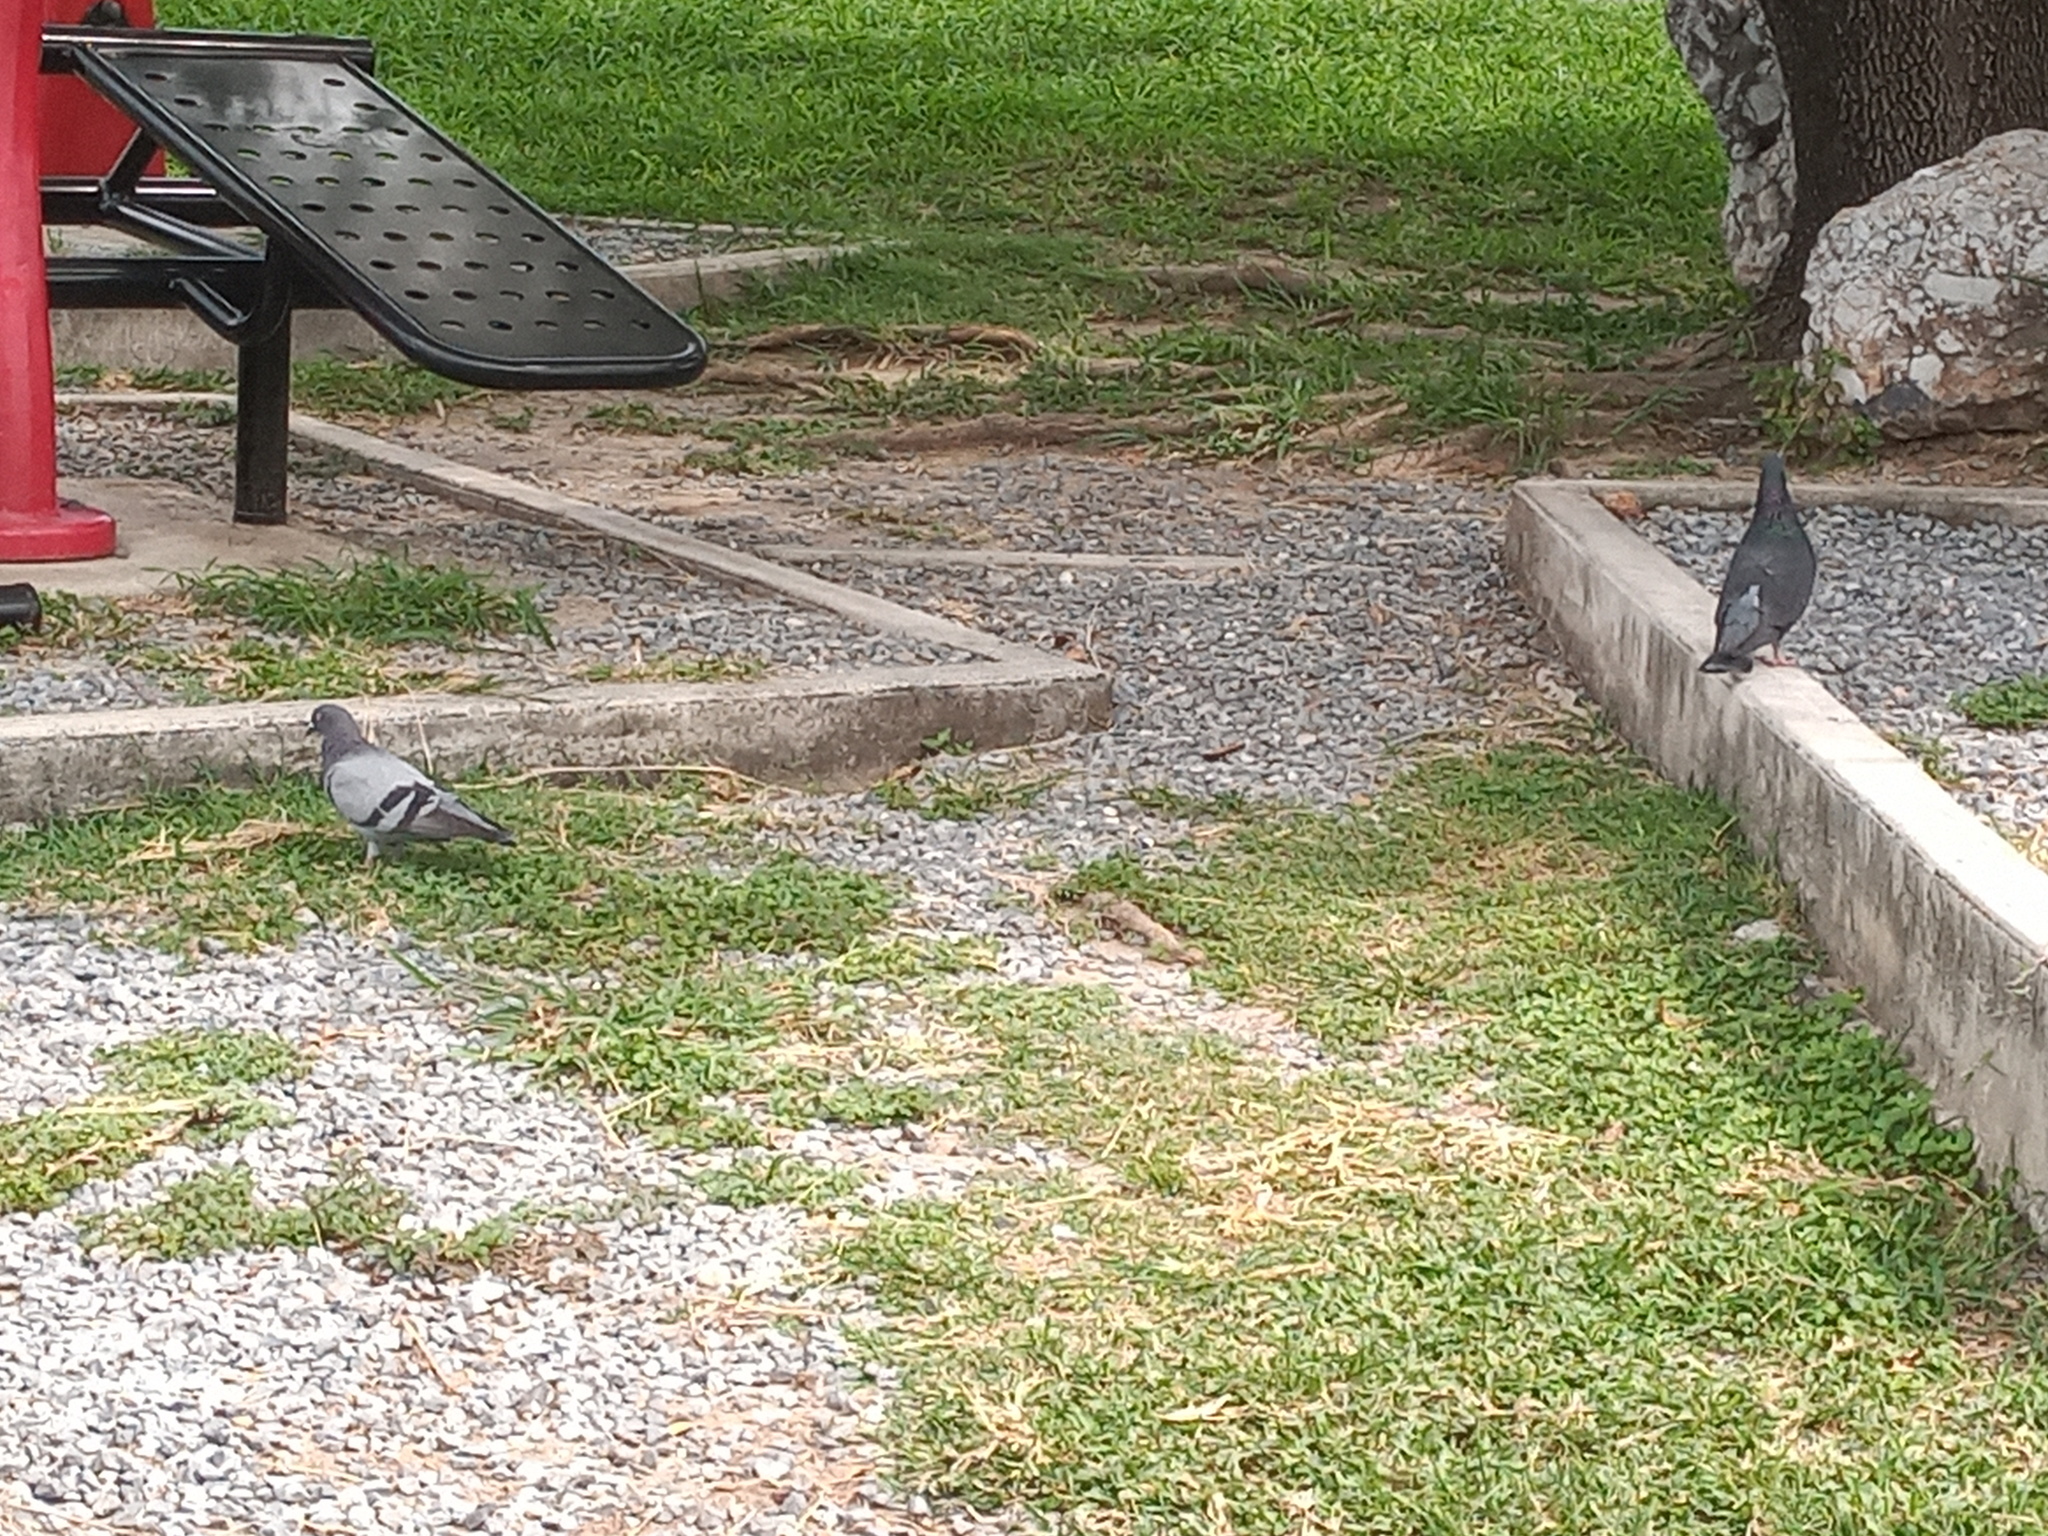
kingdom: Animalia
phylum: Chordata
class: Aves
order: Columbiformes
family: Columbidae
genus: Columba
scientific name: Columba livia
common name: Rock pigeon
